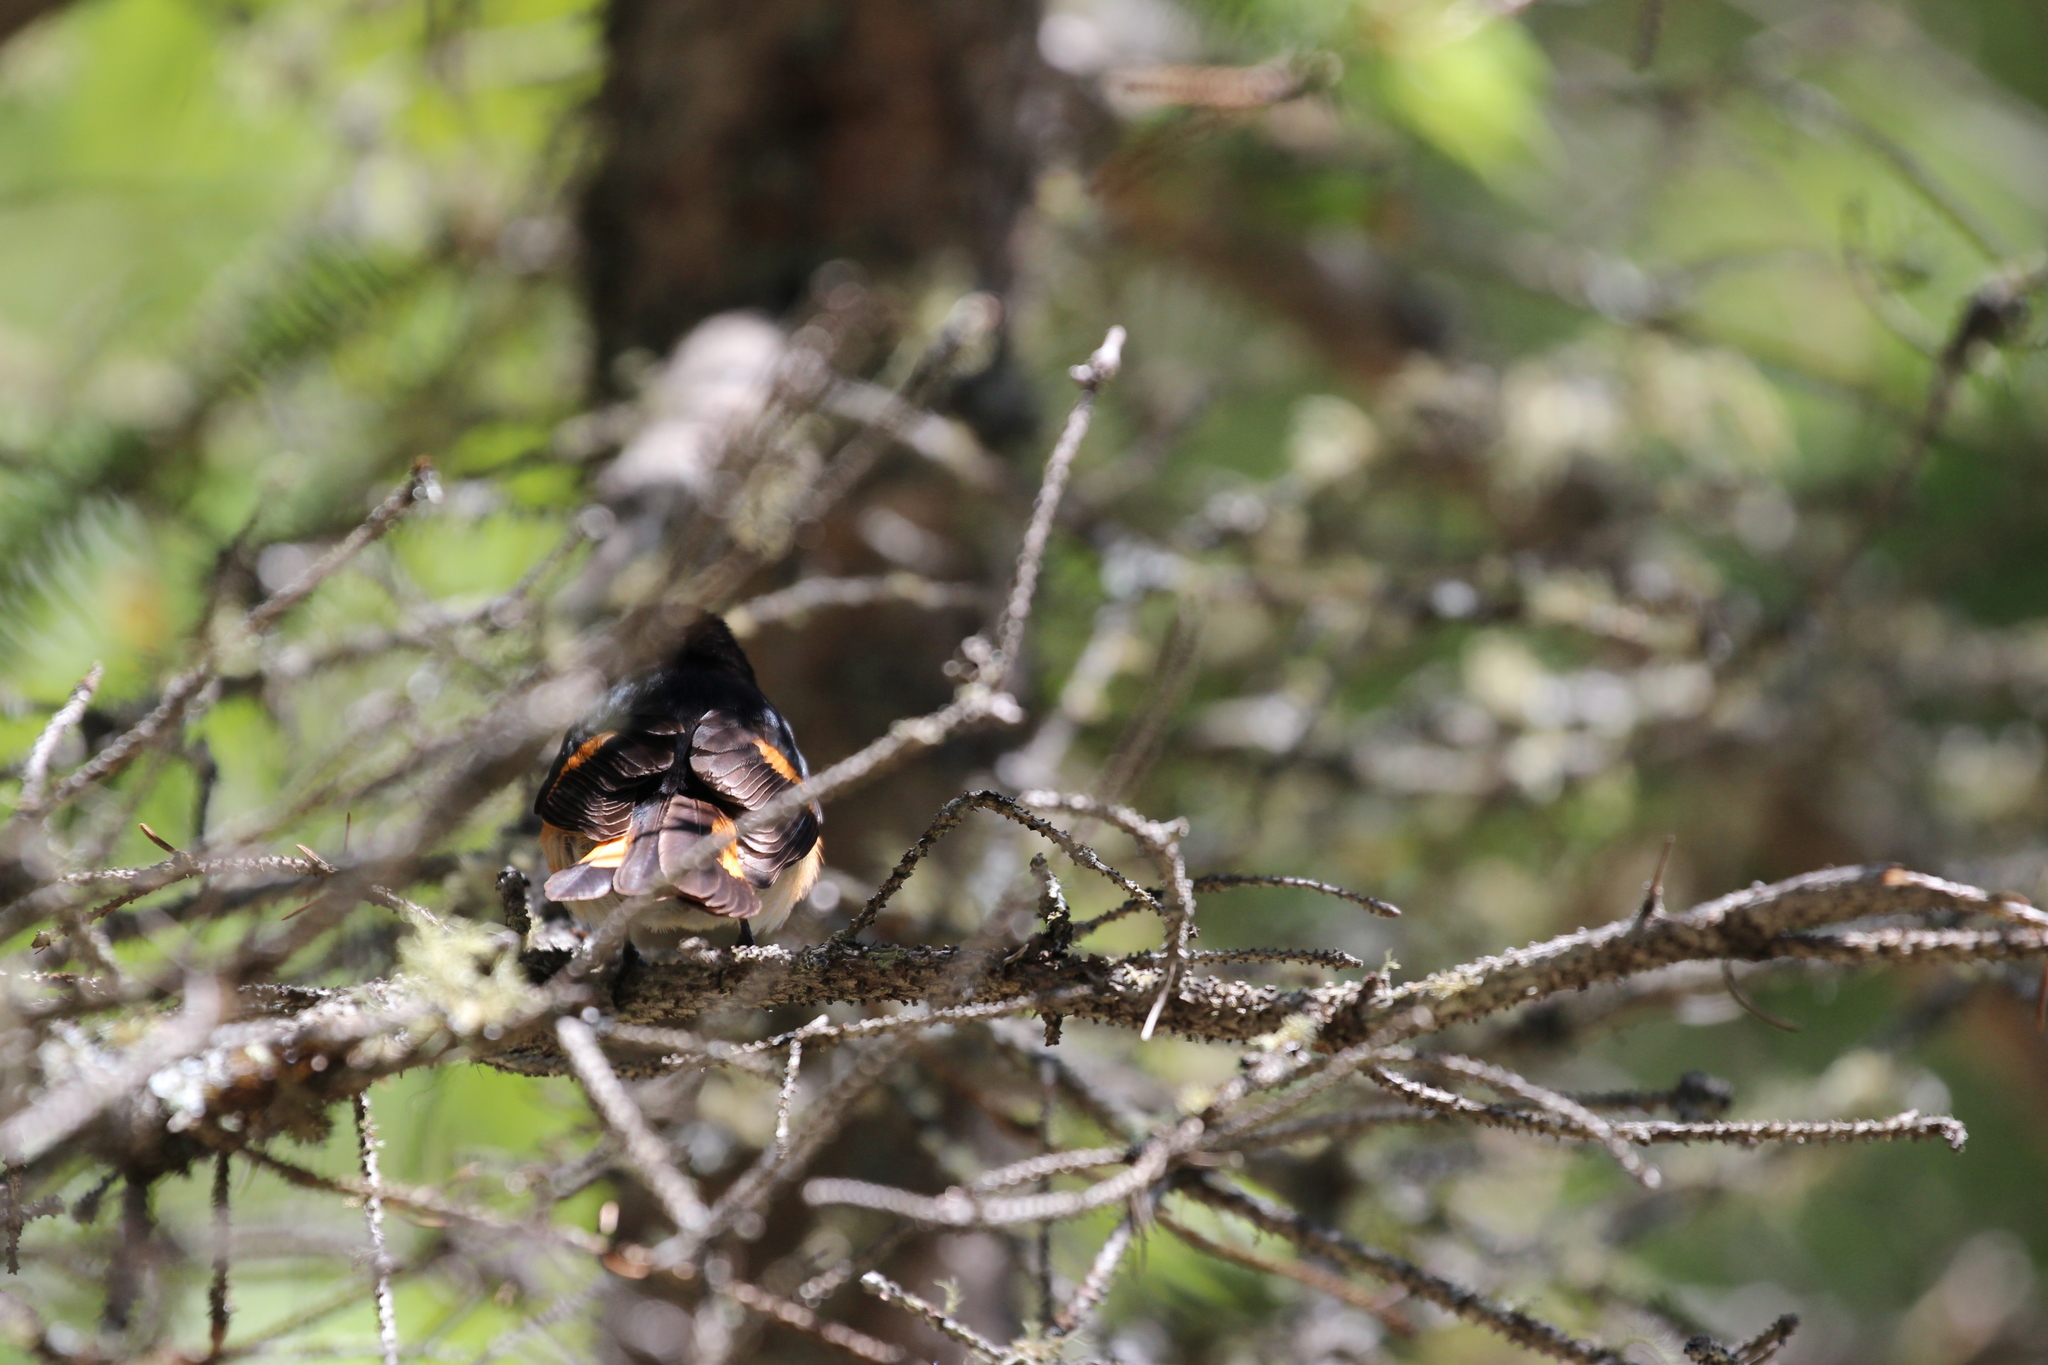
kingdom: Animalia
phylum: Chordata
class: Aves
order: Passeriformes
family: Parulidae
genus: Setophaga
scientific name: Setophaga ruticilla
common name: American redstart
